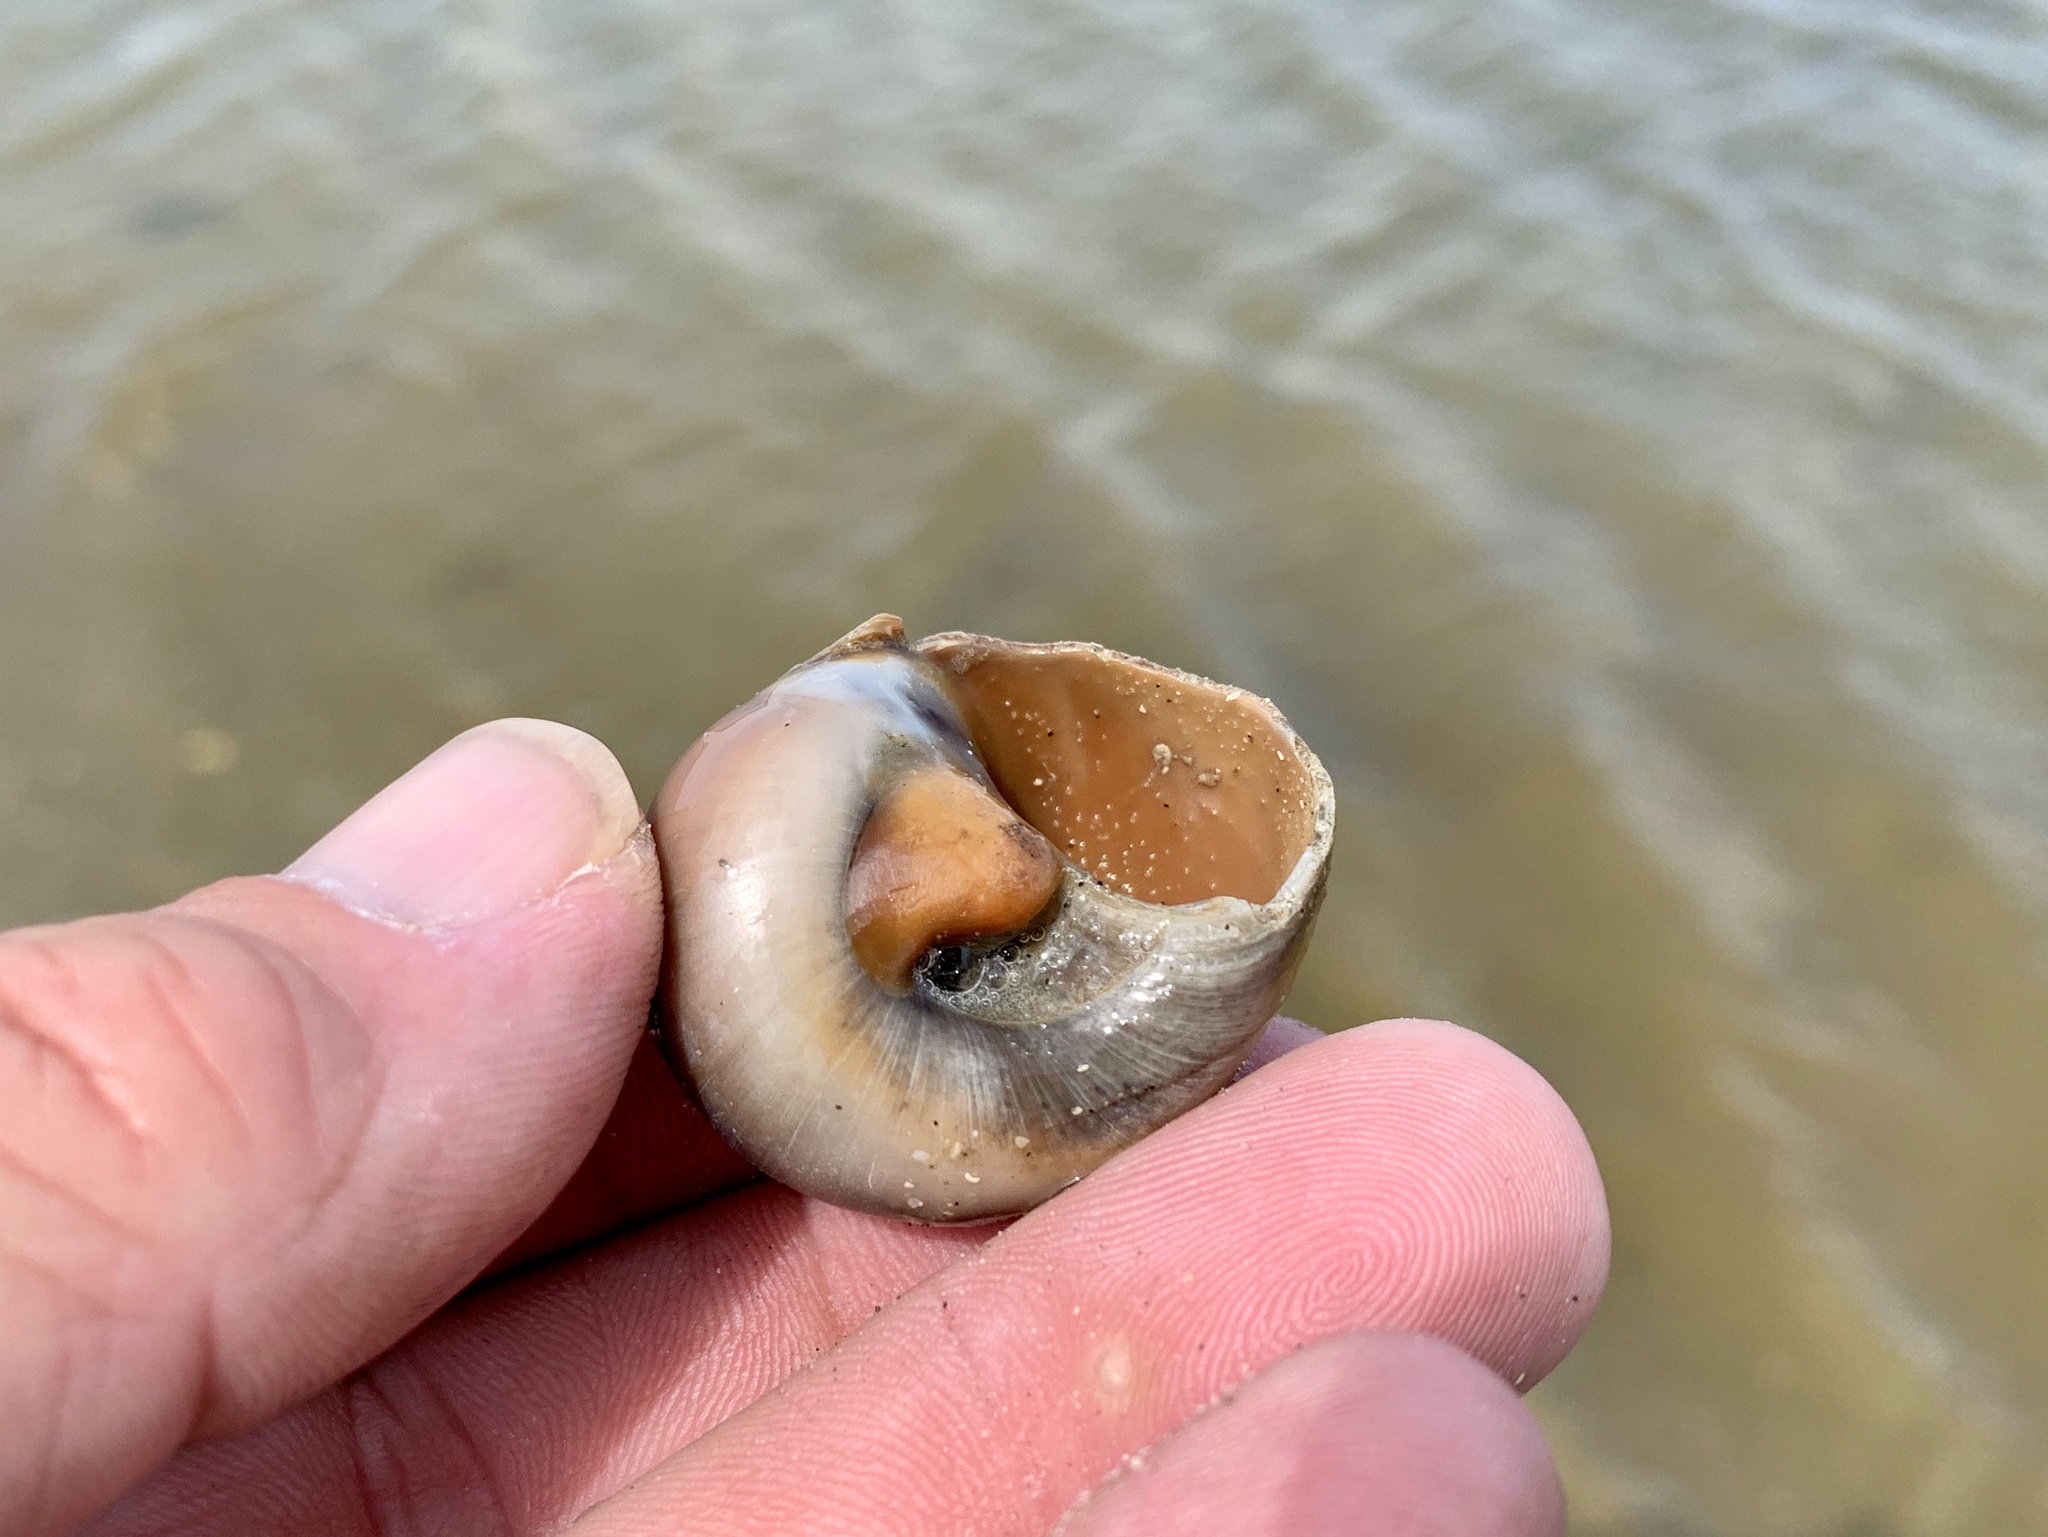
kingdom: Animalia
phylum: Mollusca
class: Gastropoda
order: Littorinimorpha
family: Naticidae
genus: Neverita
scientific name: Neverita delessertiana
